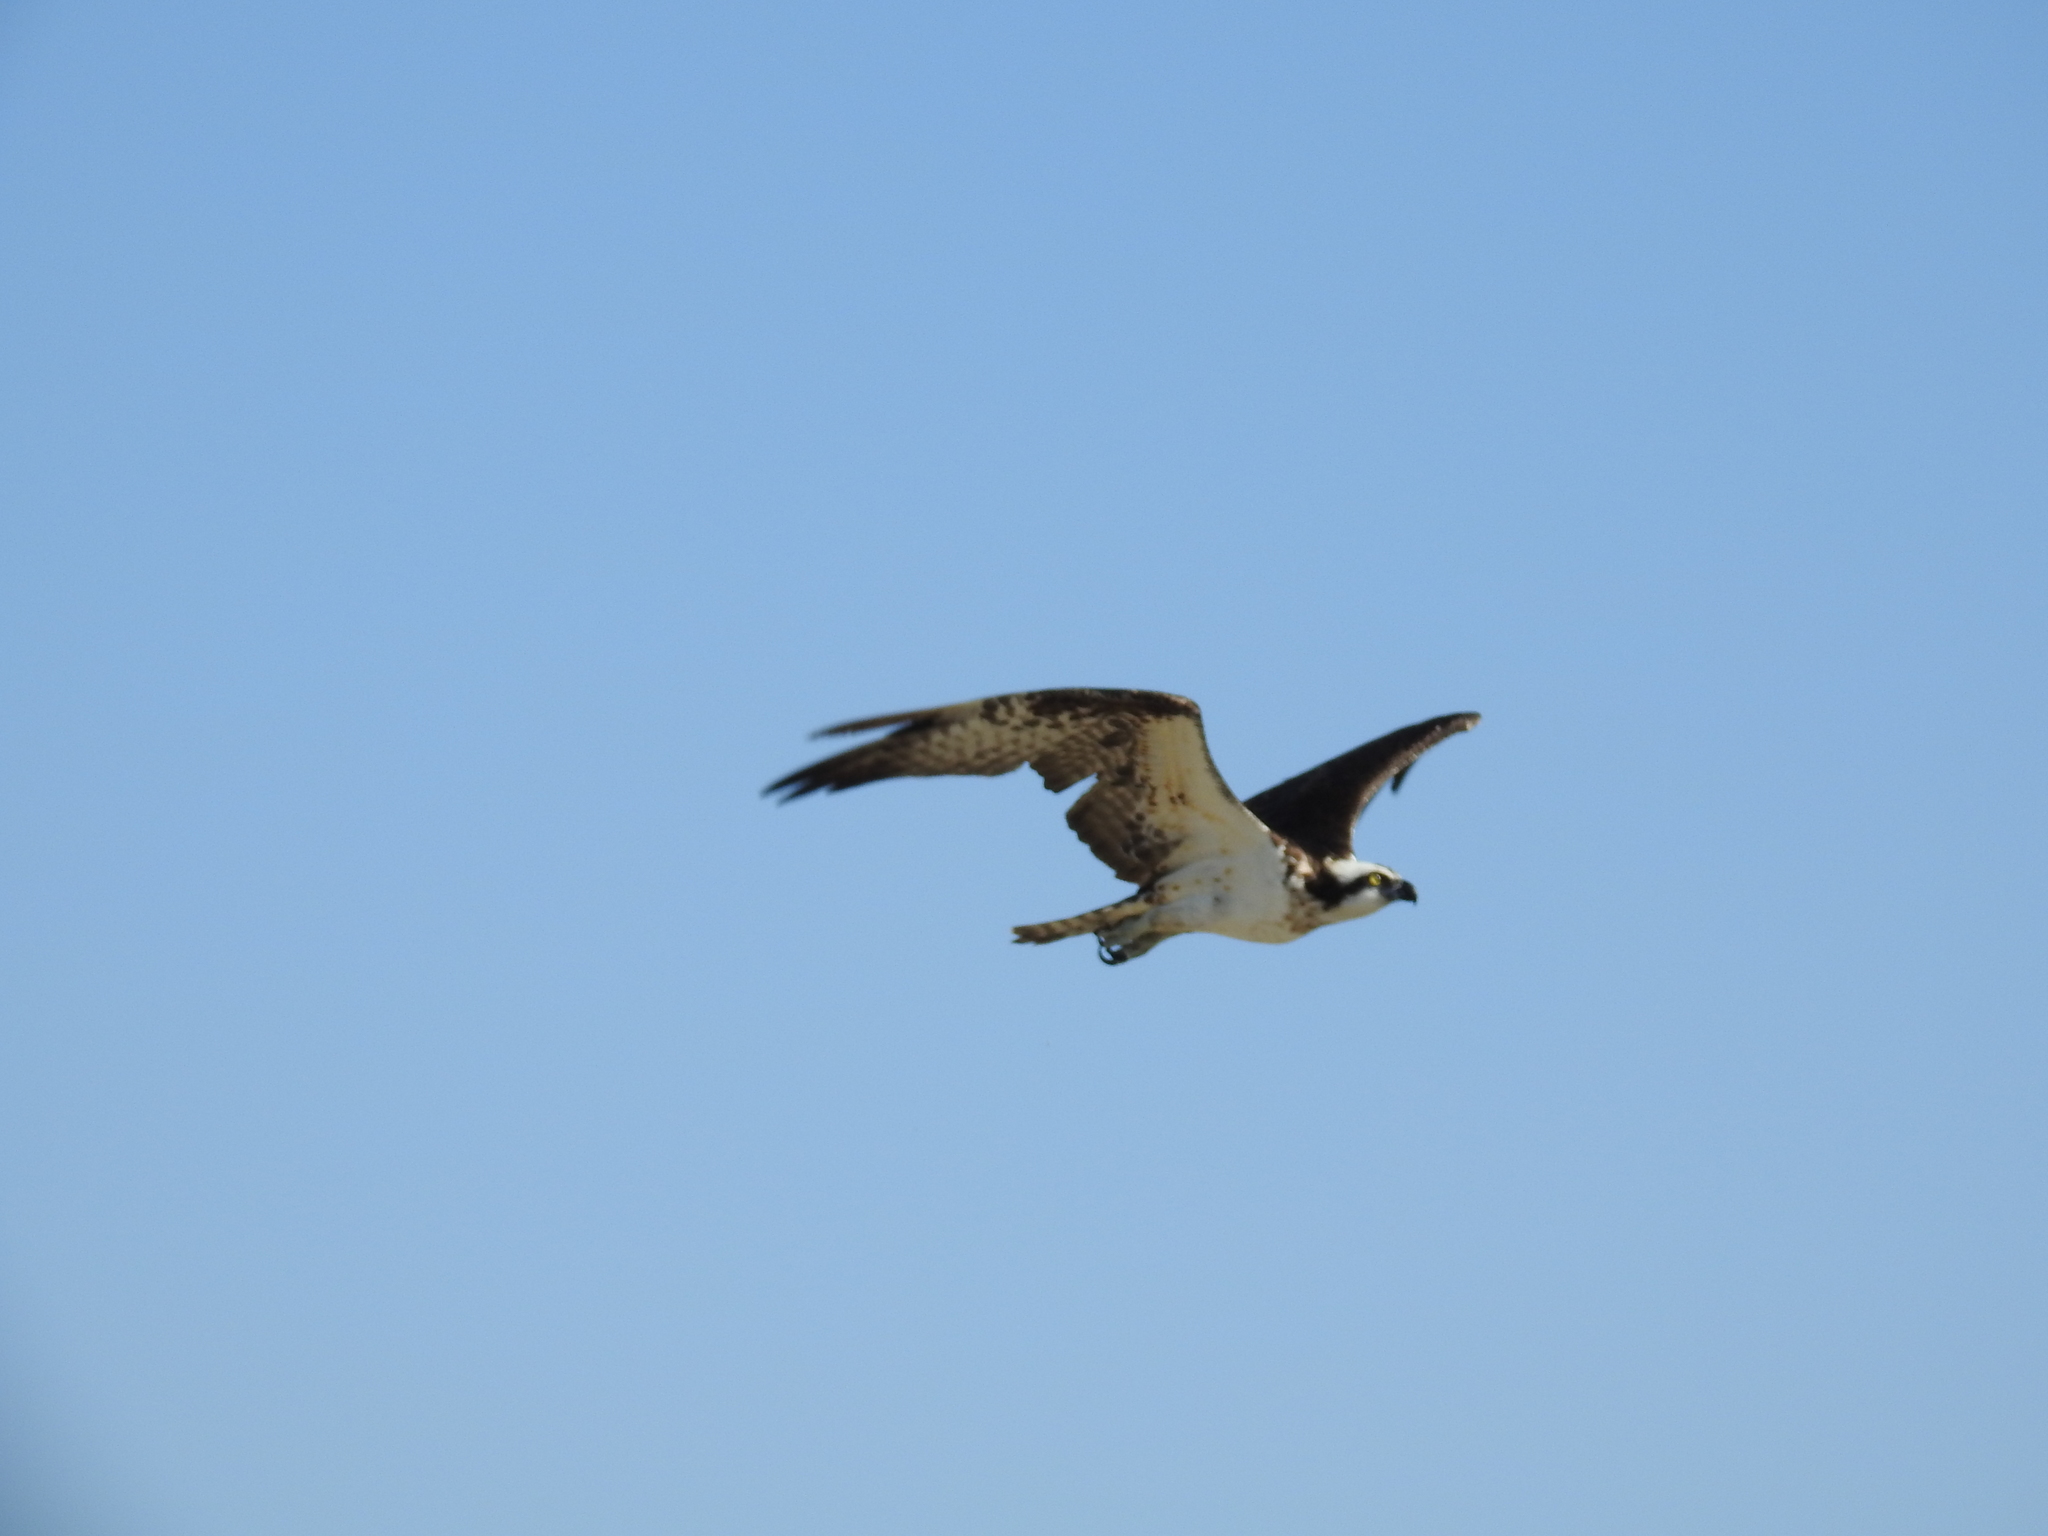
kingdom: Animalia
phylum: Chordata
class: Aves
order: Accipitriformes
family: Pandionidae
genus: Pandion
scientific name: Pandion haliaetus
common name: Osprey
